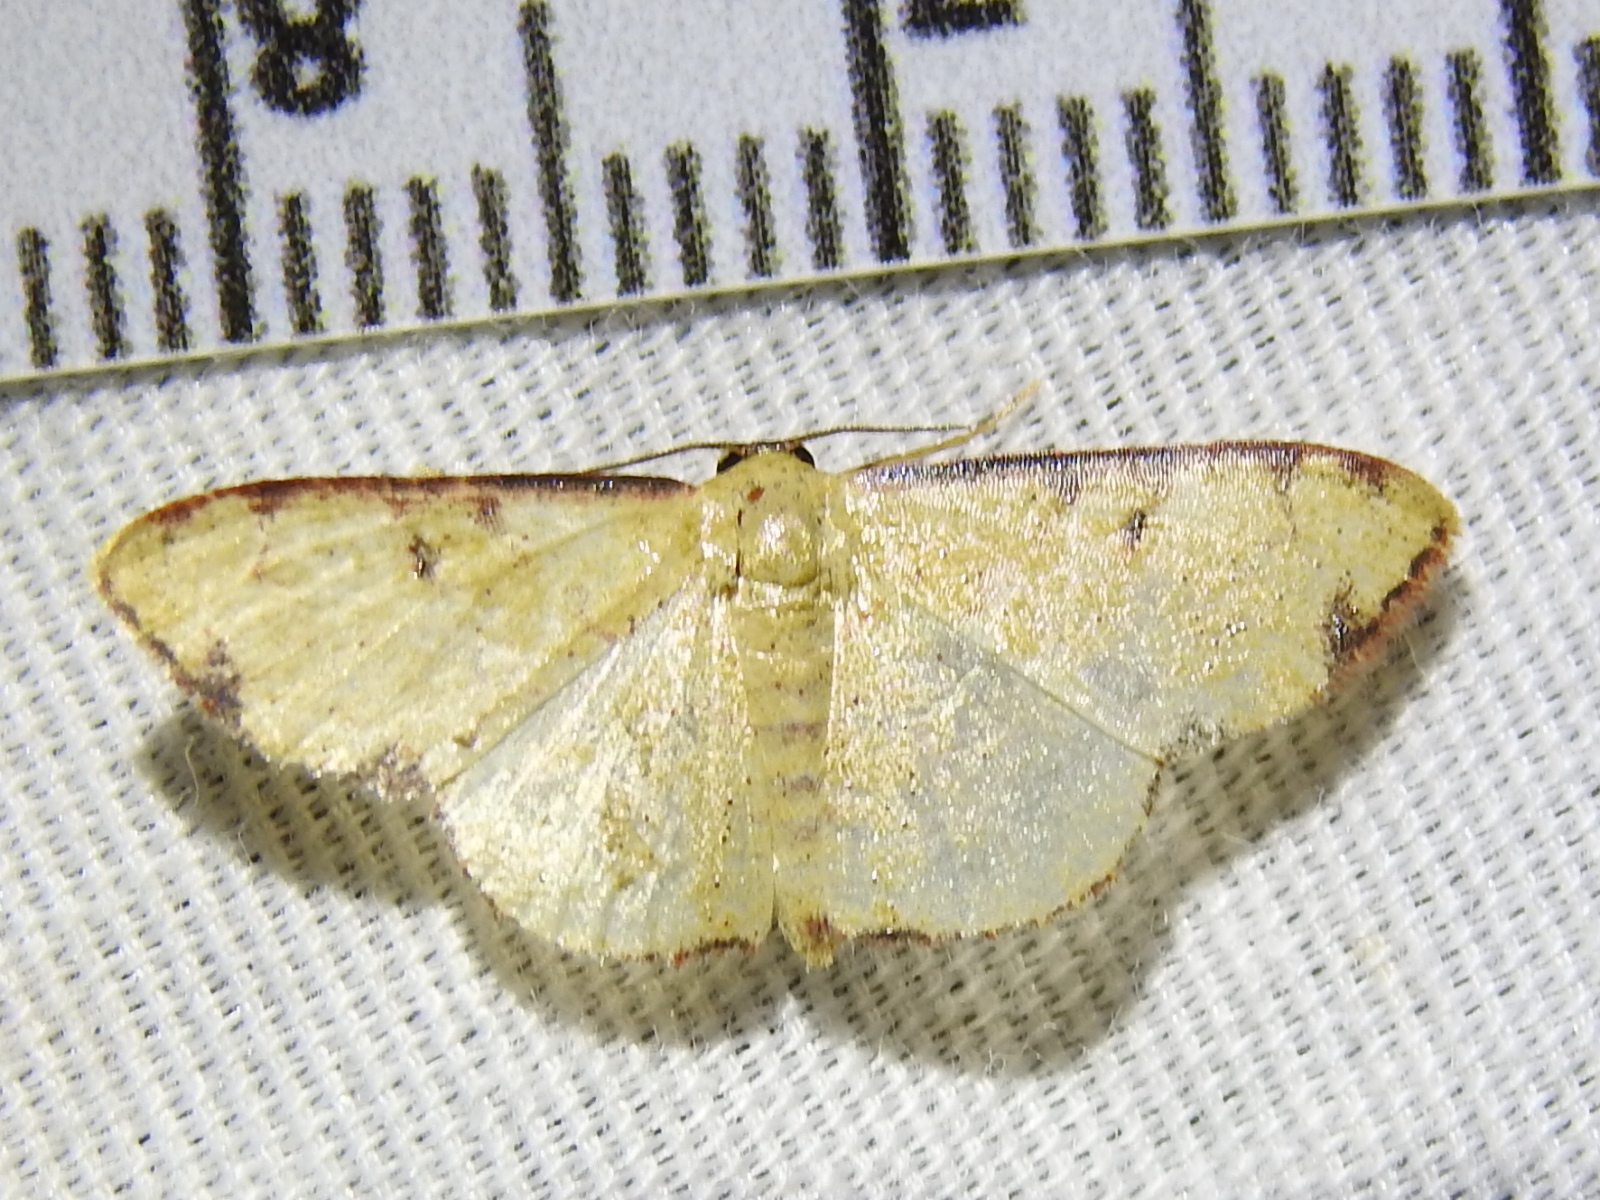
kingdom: Animalia
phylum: Arthropoda
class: Insecta
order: Lepidoptera
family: Geometridae
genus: Semaeopus
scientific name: Semaeopus marginata
